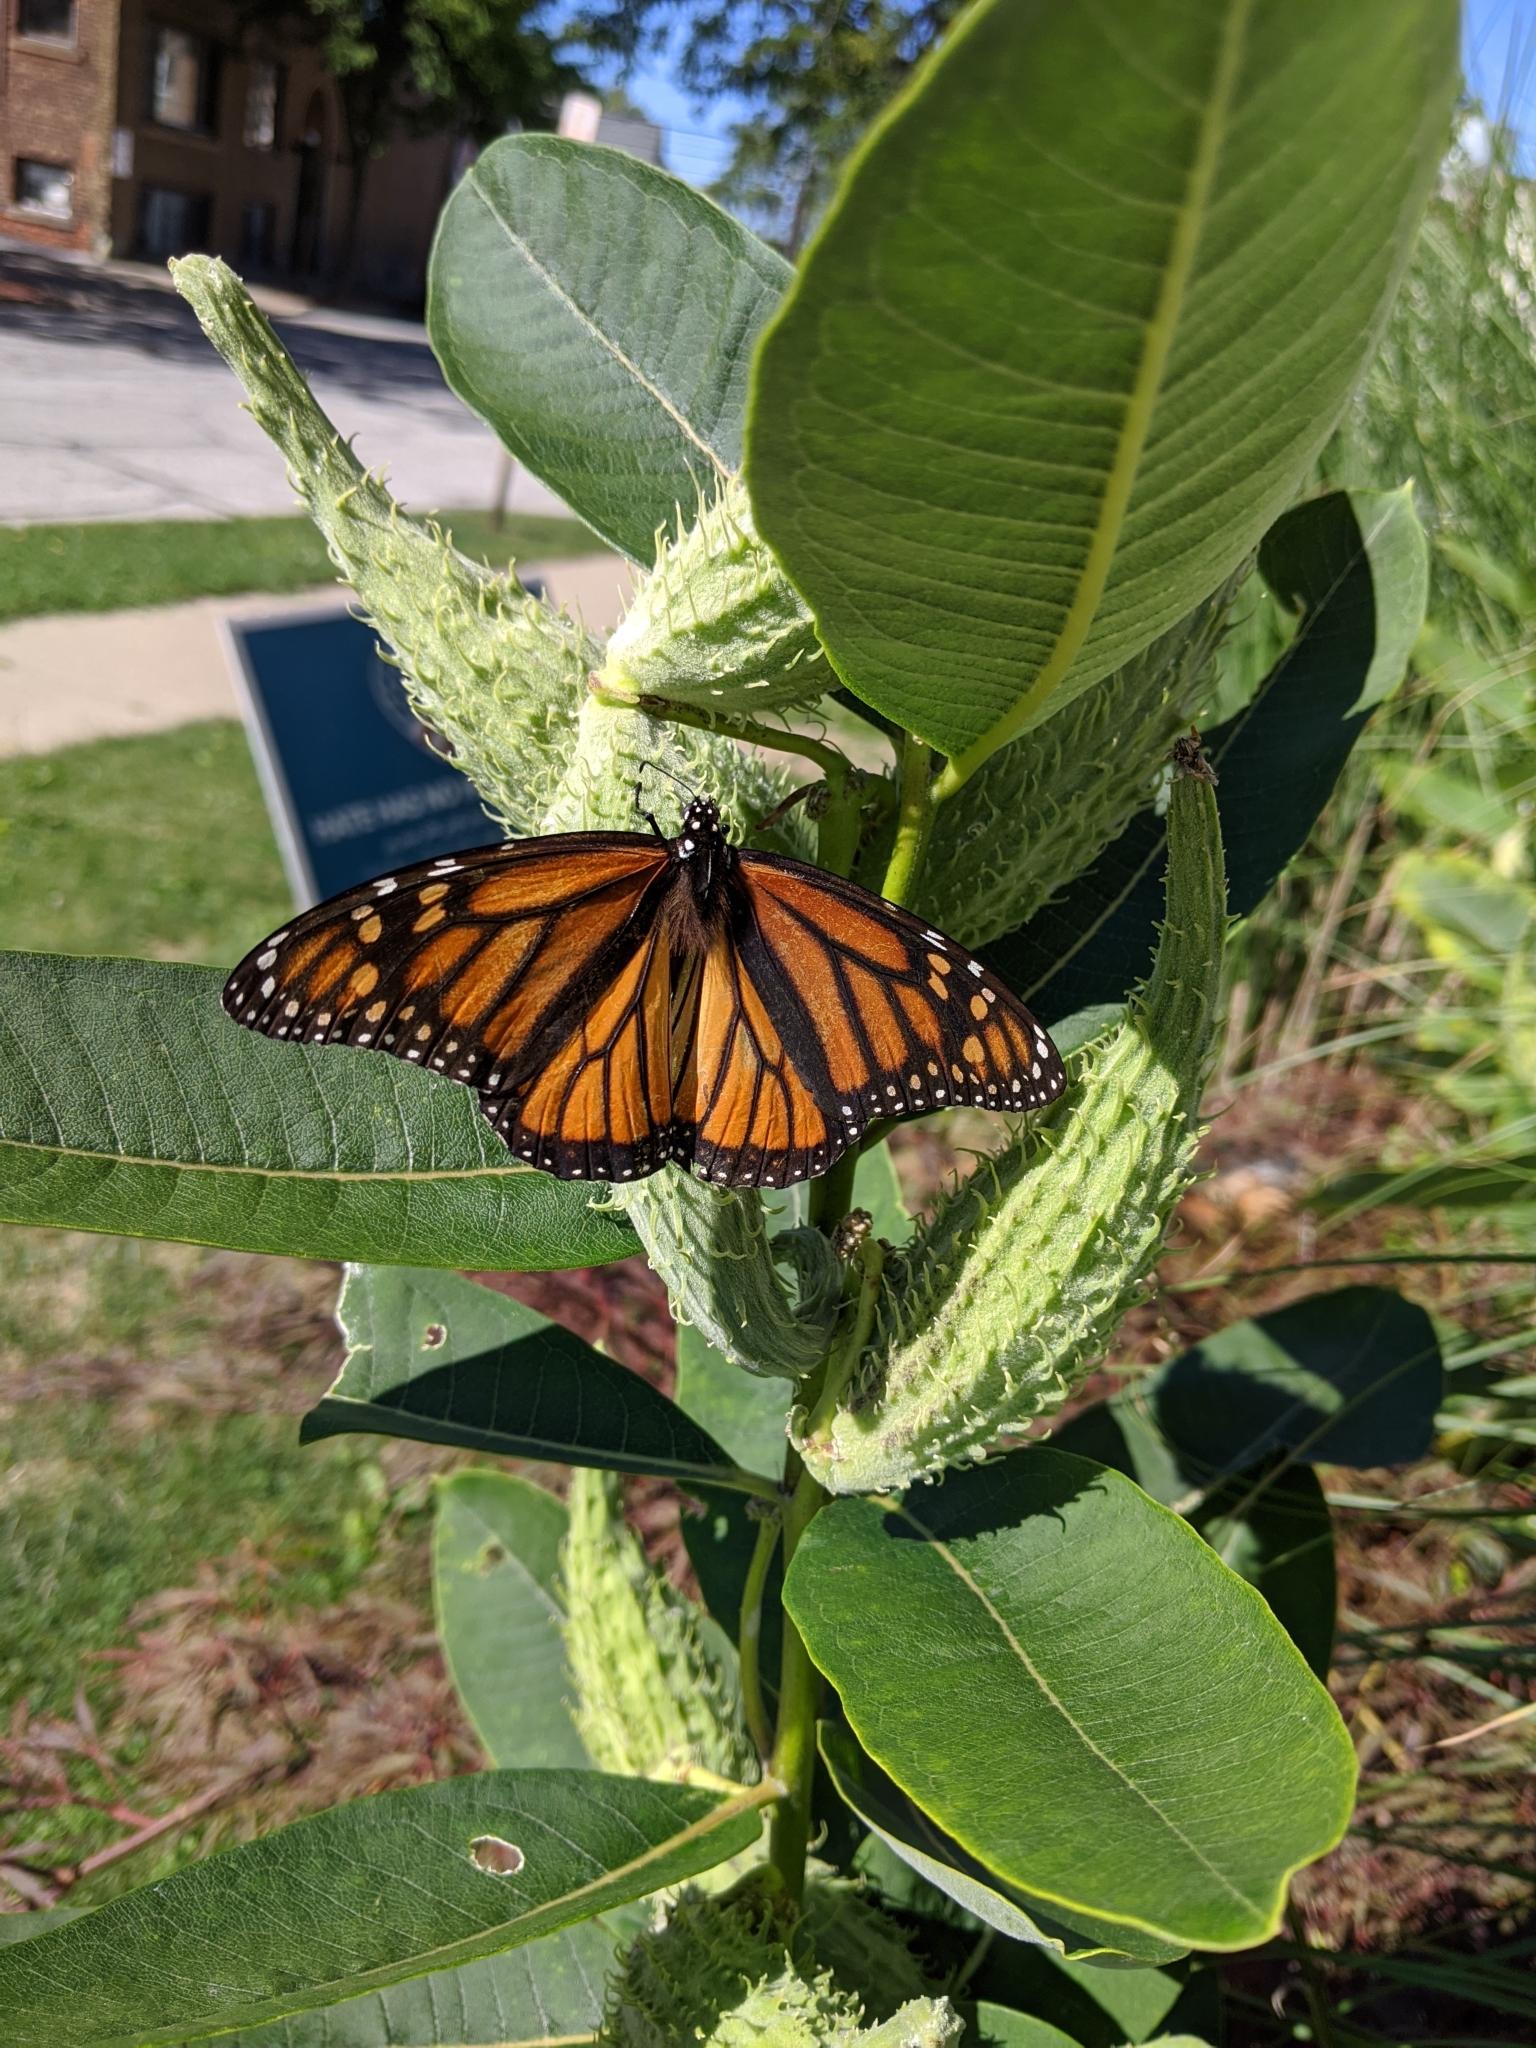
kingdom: Animalia
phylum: Arthropoda
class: Insecta
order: Lepidoptera
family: Nymphalidae
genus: Danaus
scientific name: Danaus plexippus
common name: Monarch
